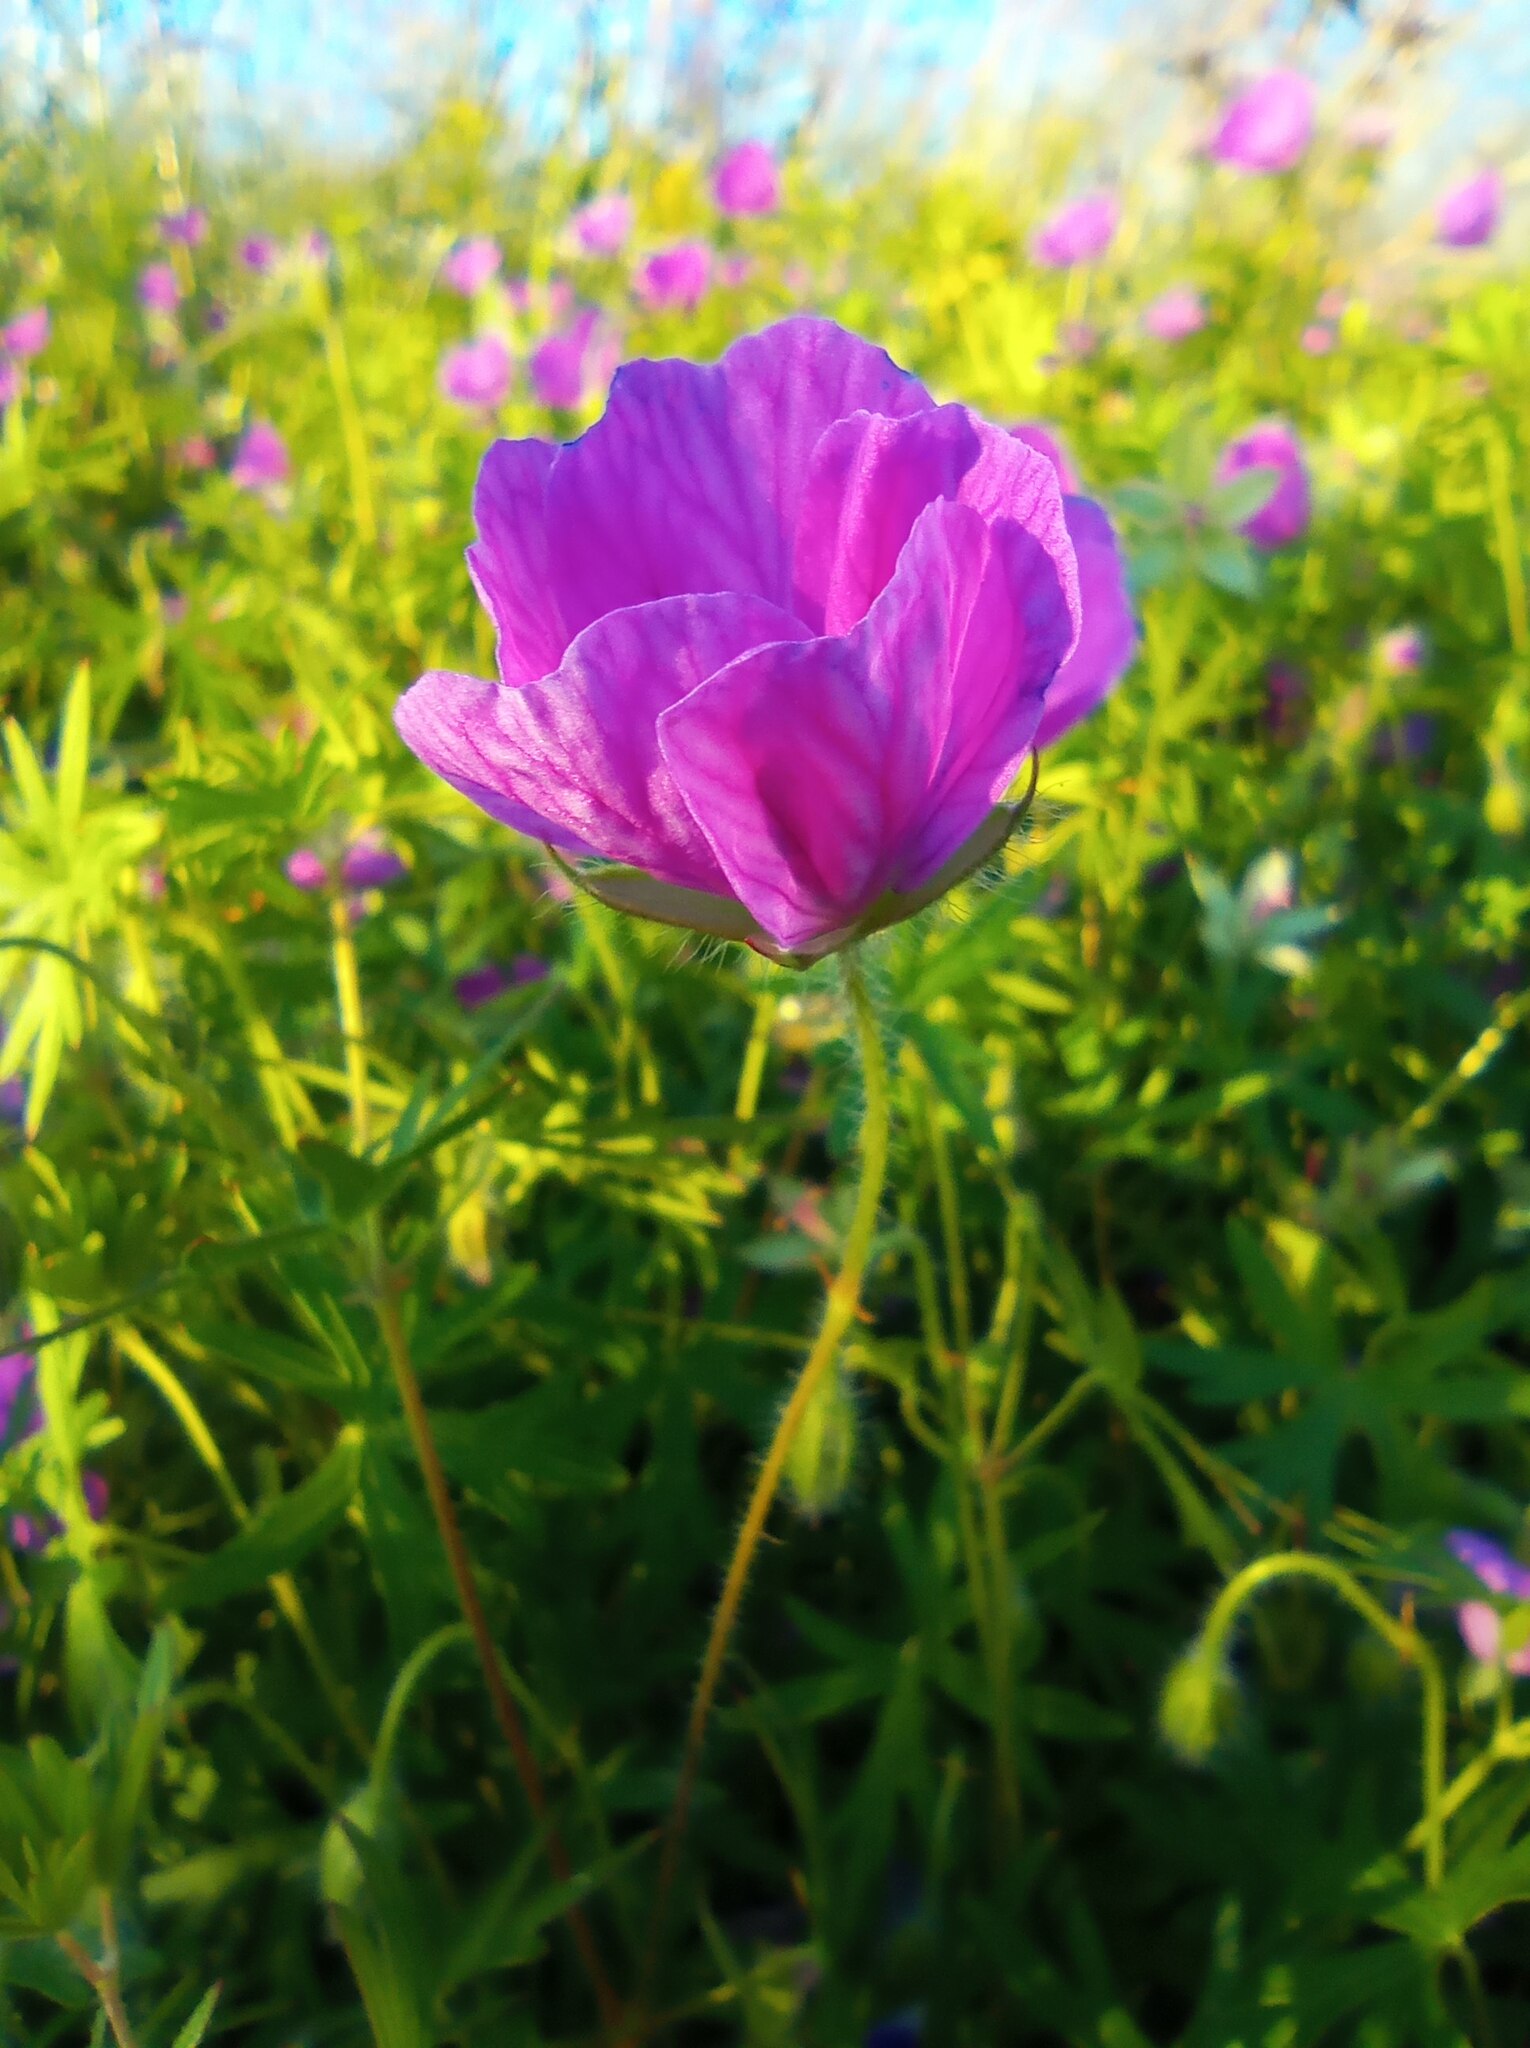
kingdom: Plantae
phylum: Tracheophyta
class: Magnoliopsida
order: Geraniales
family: Geraniaceae
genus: Geranium
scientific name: Geranium sanguineum
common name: Bloody crane's-bill
